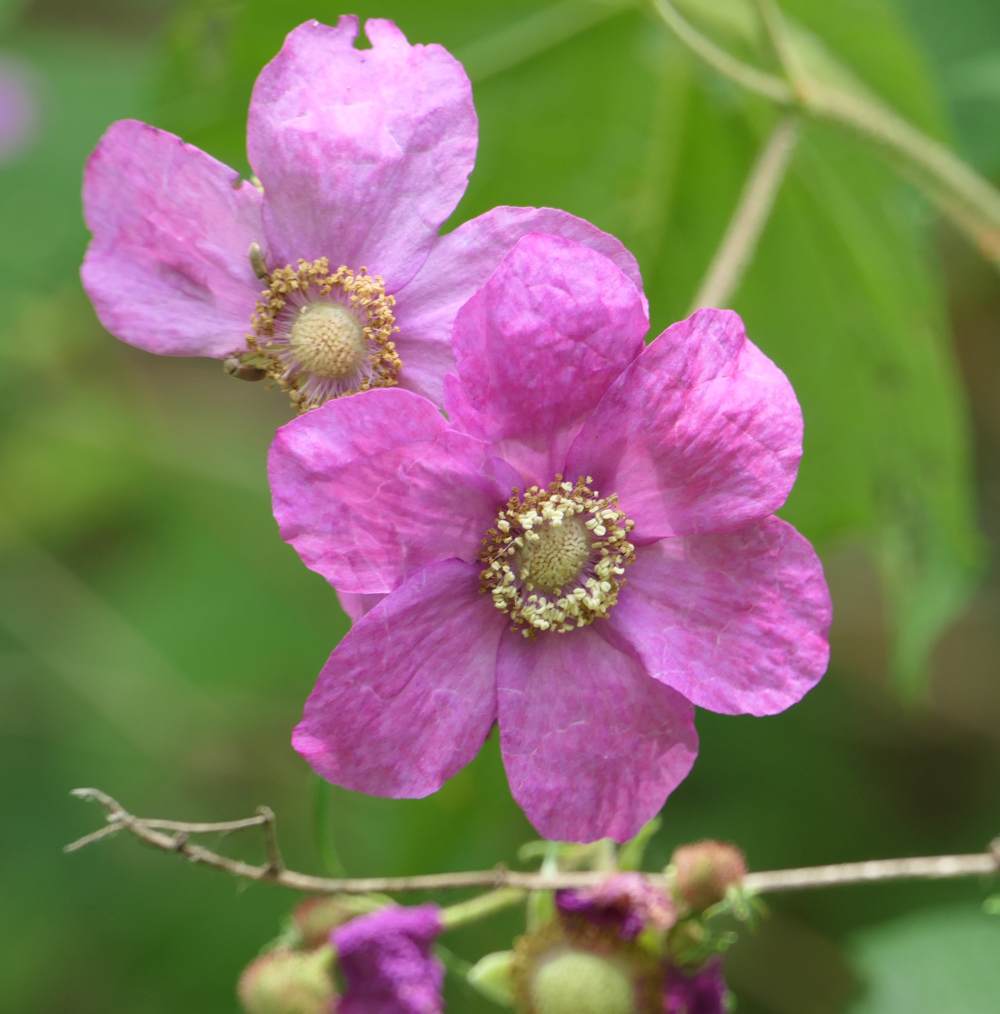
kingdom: Plantae
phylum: Tracheophyta
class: Magnoliopsida
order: Rosales
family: Rosaceae
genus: Rubus
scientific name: Rubus odoratus
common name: Purple-flowered raspberry
